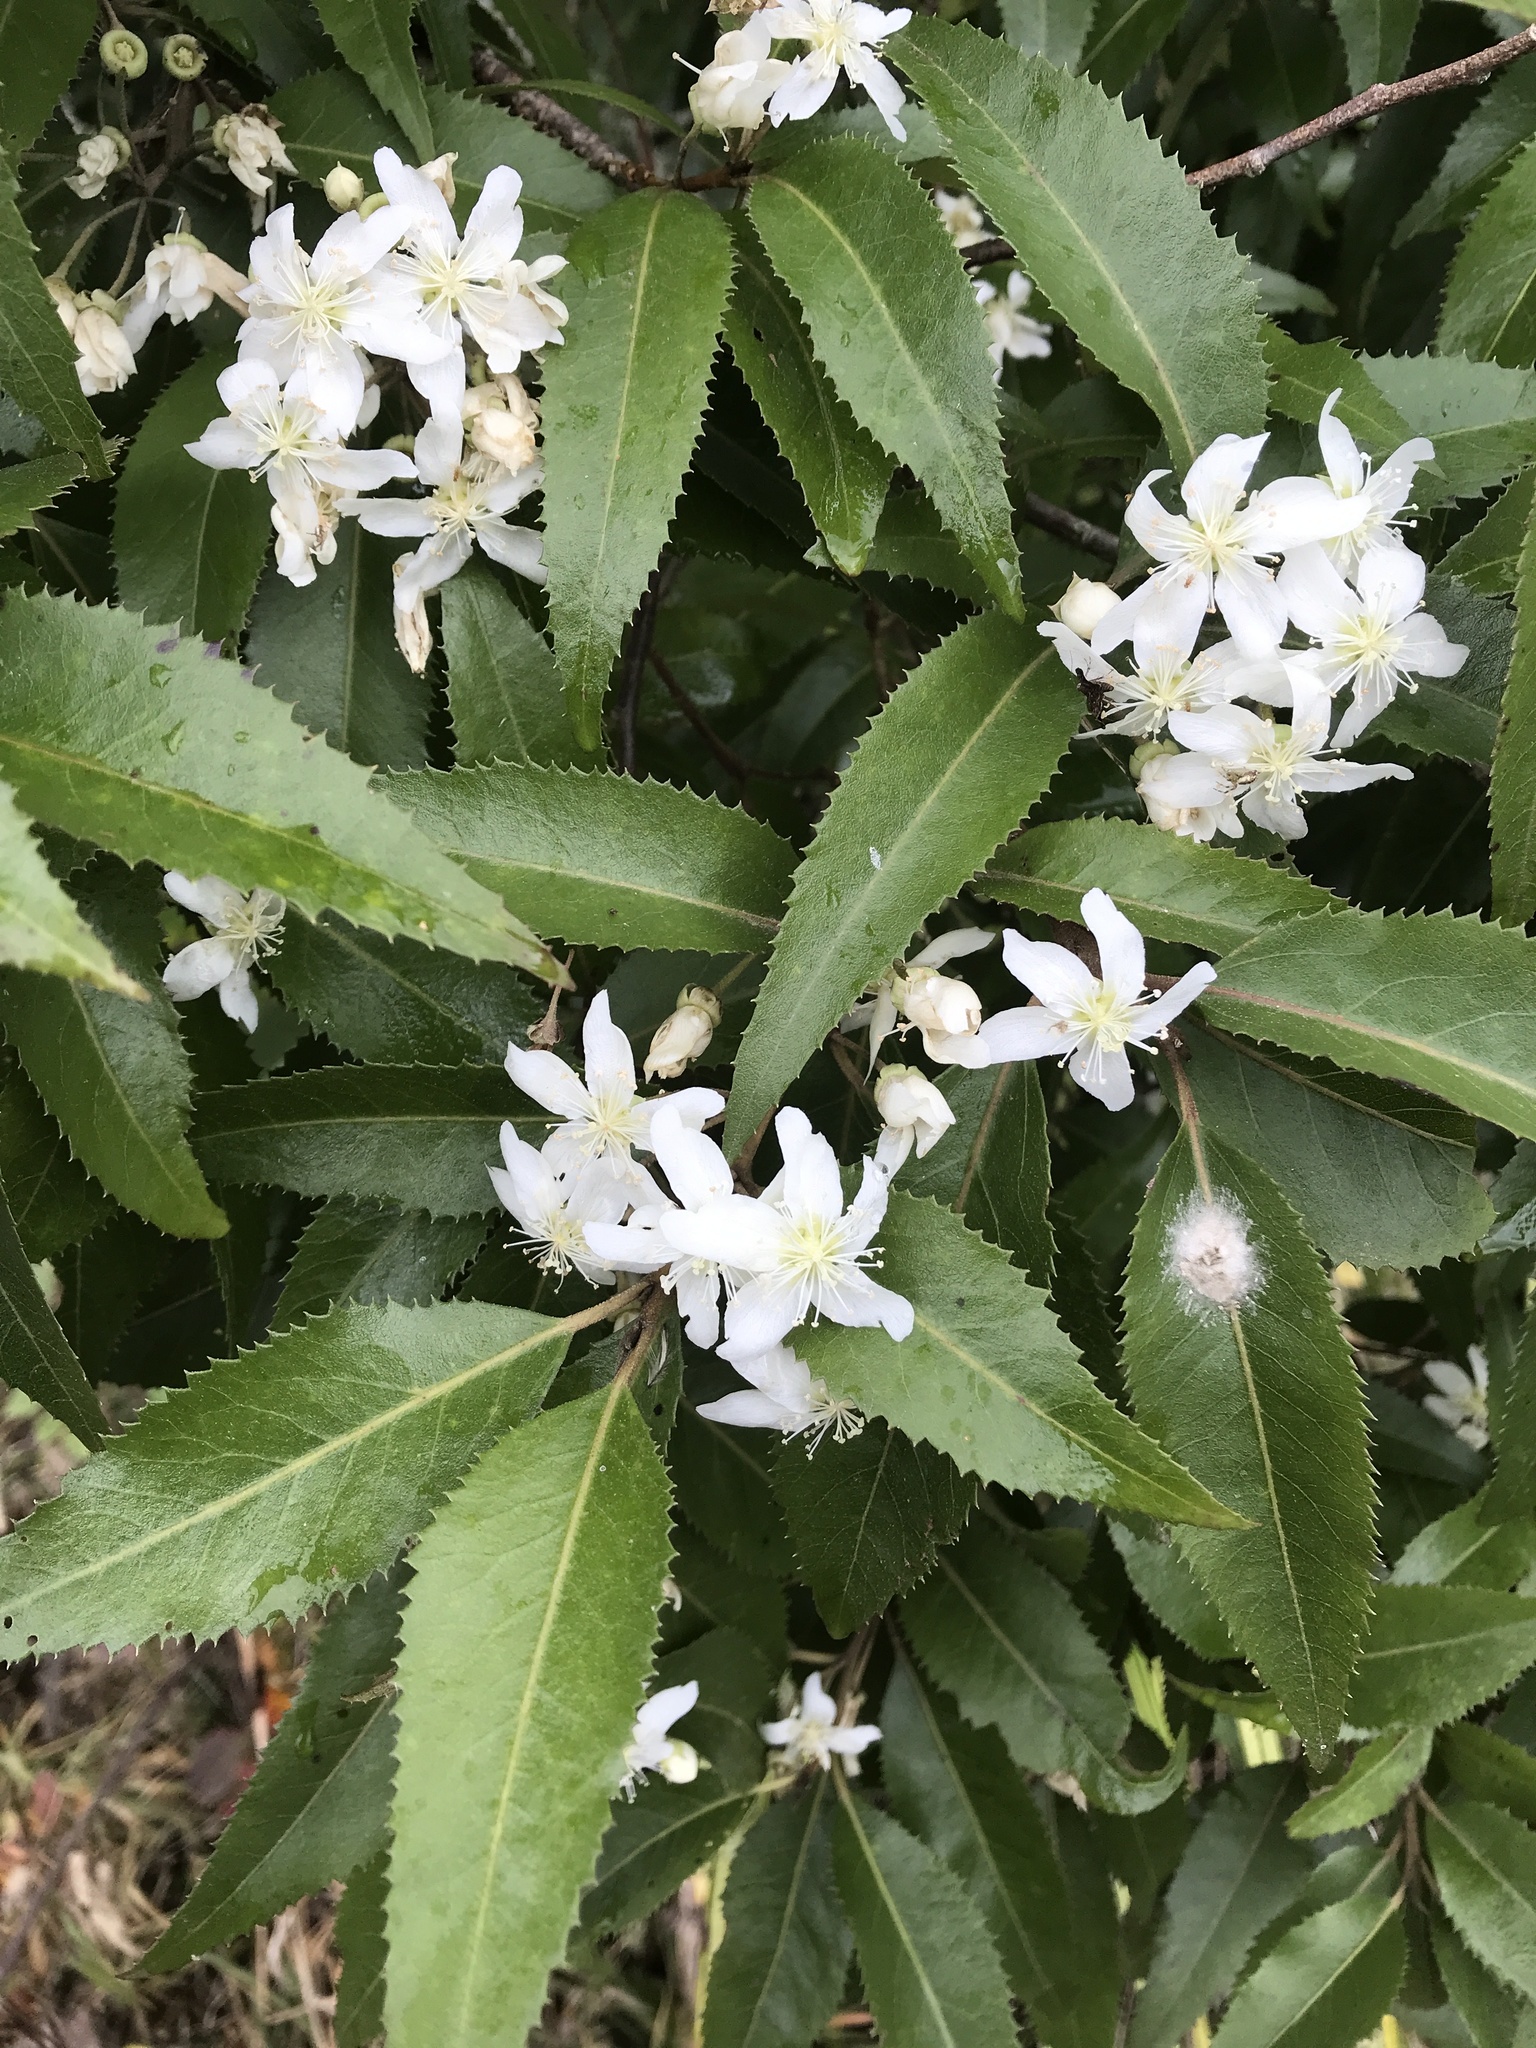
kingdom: Plantae
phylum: Tracheophyta
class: Magnoliopsida
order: Malvales
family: Malvaceae
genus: Hoheria
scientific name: Hoheria sexstylosa
